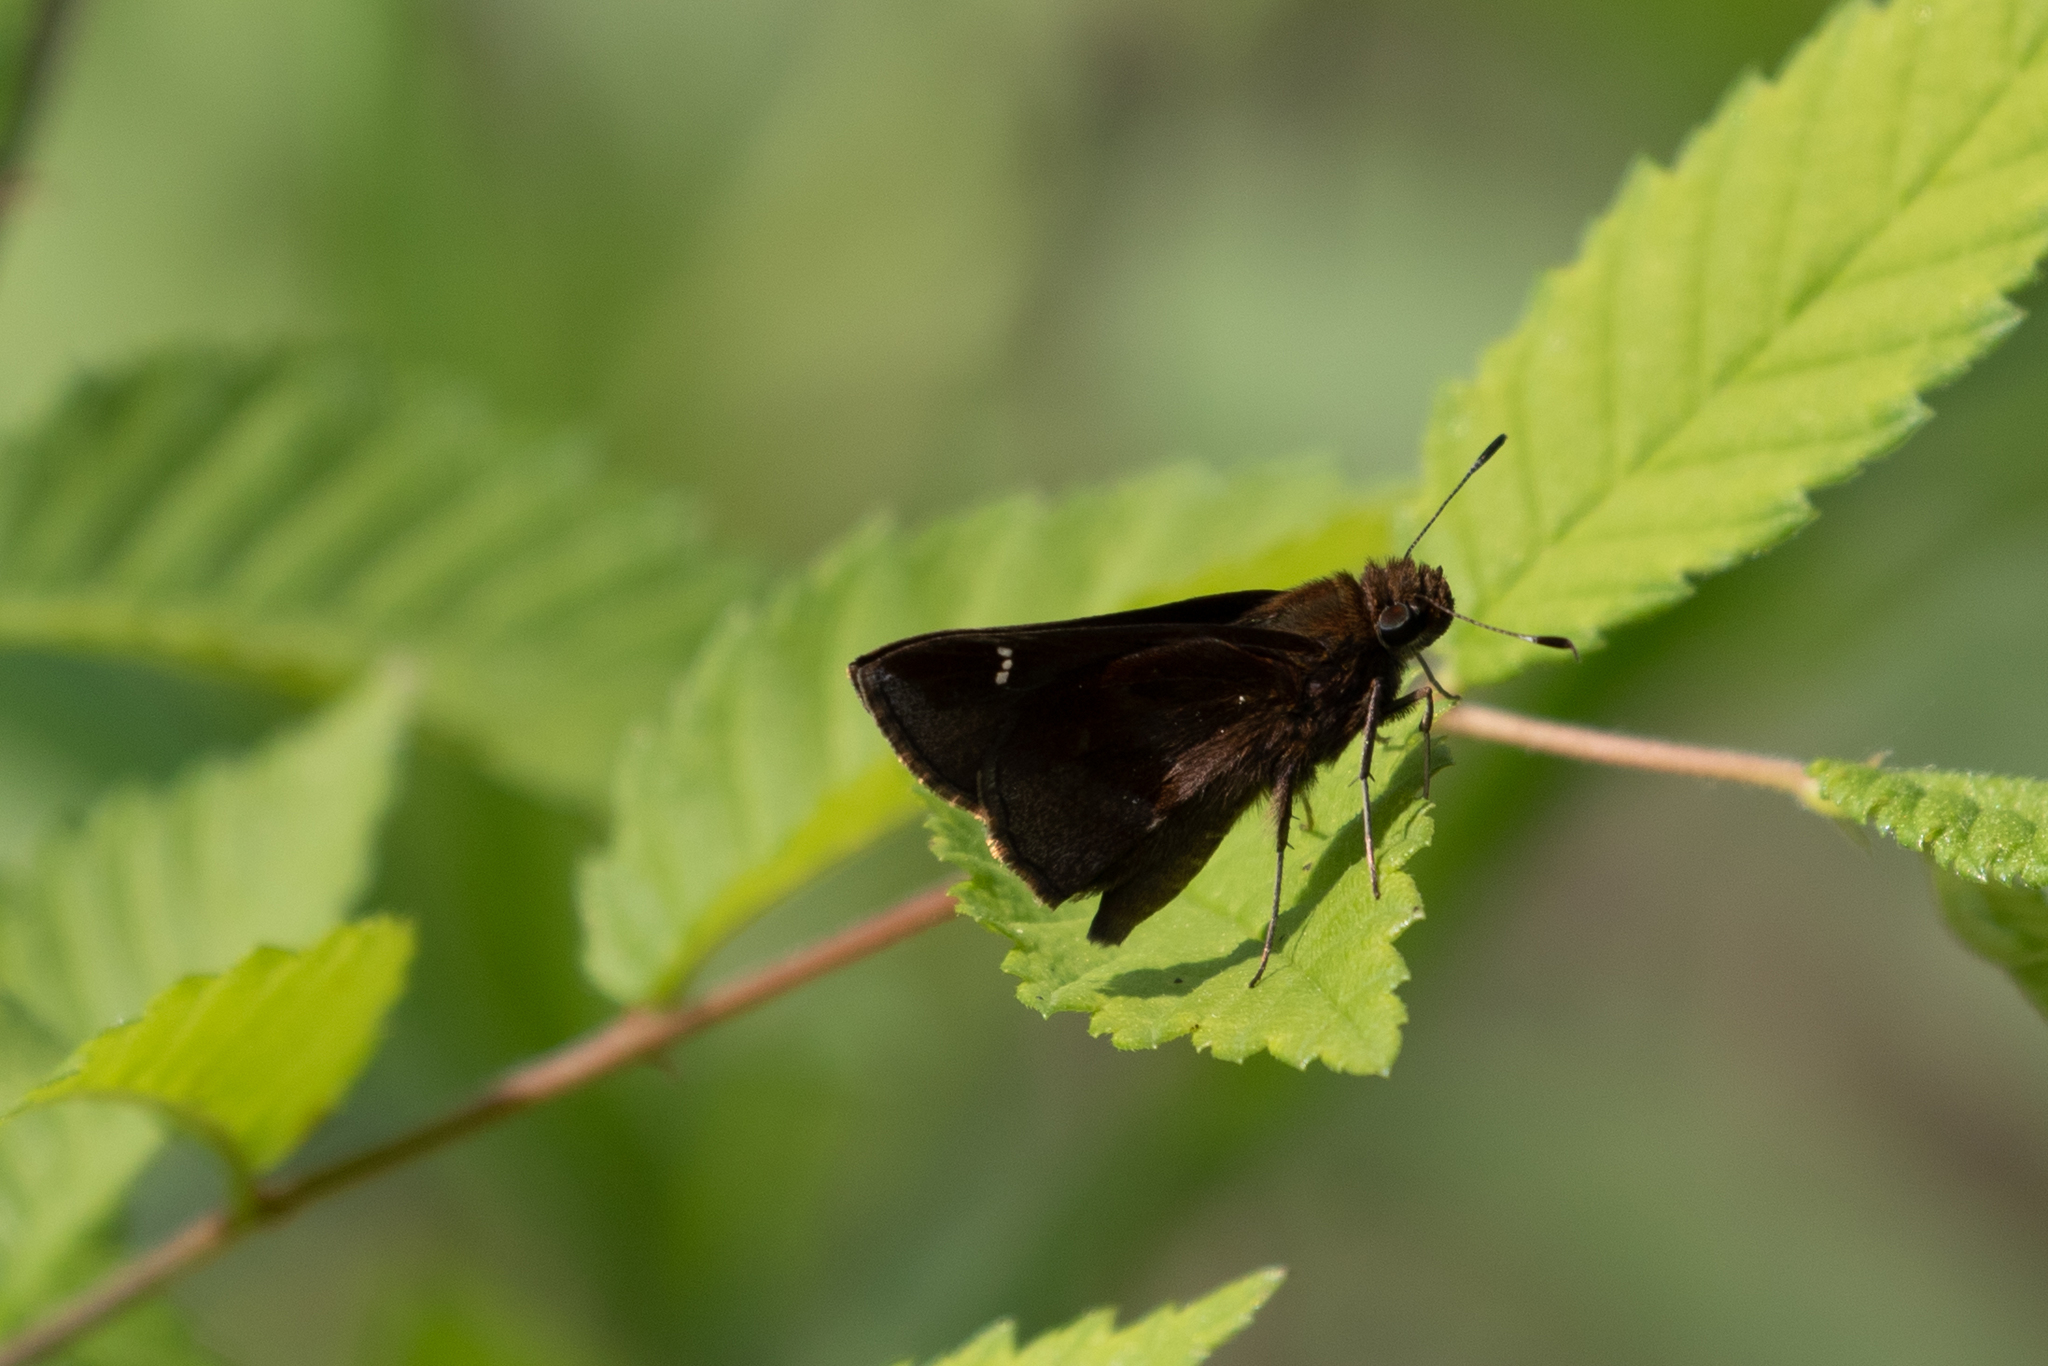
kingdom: Animalia
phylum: Arthropoda
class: Insecta
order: Lepidoptera
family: Hesperiidae
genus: Lerema
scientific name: Lerema accius
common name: Clouded skipper
